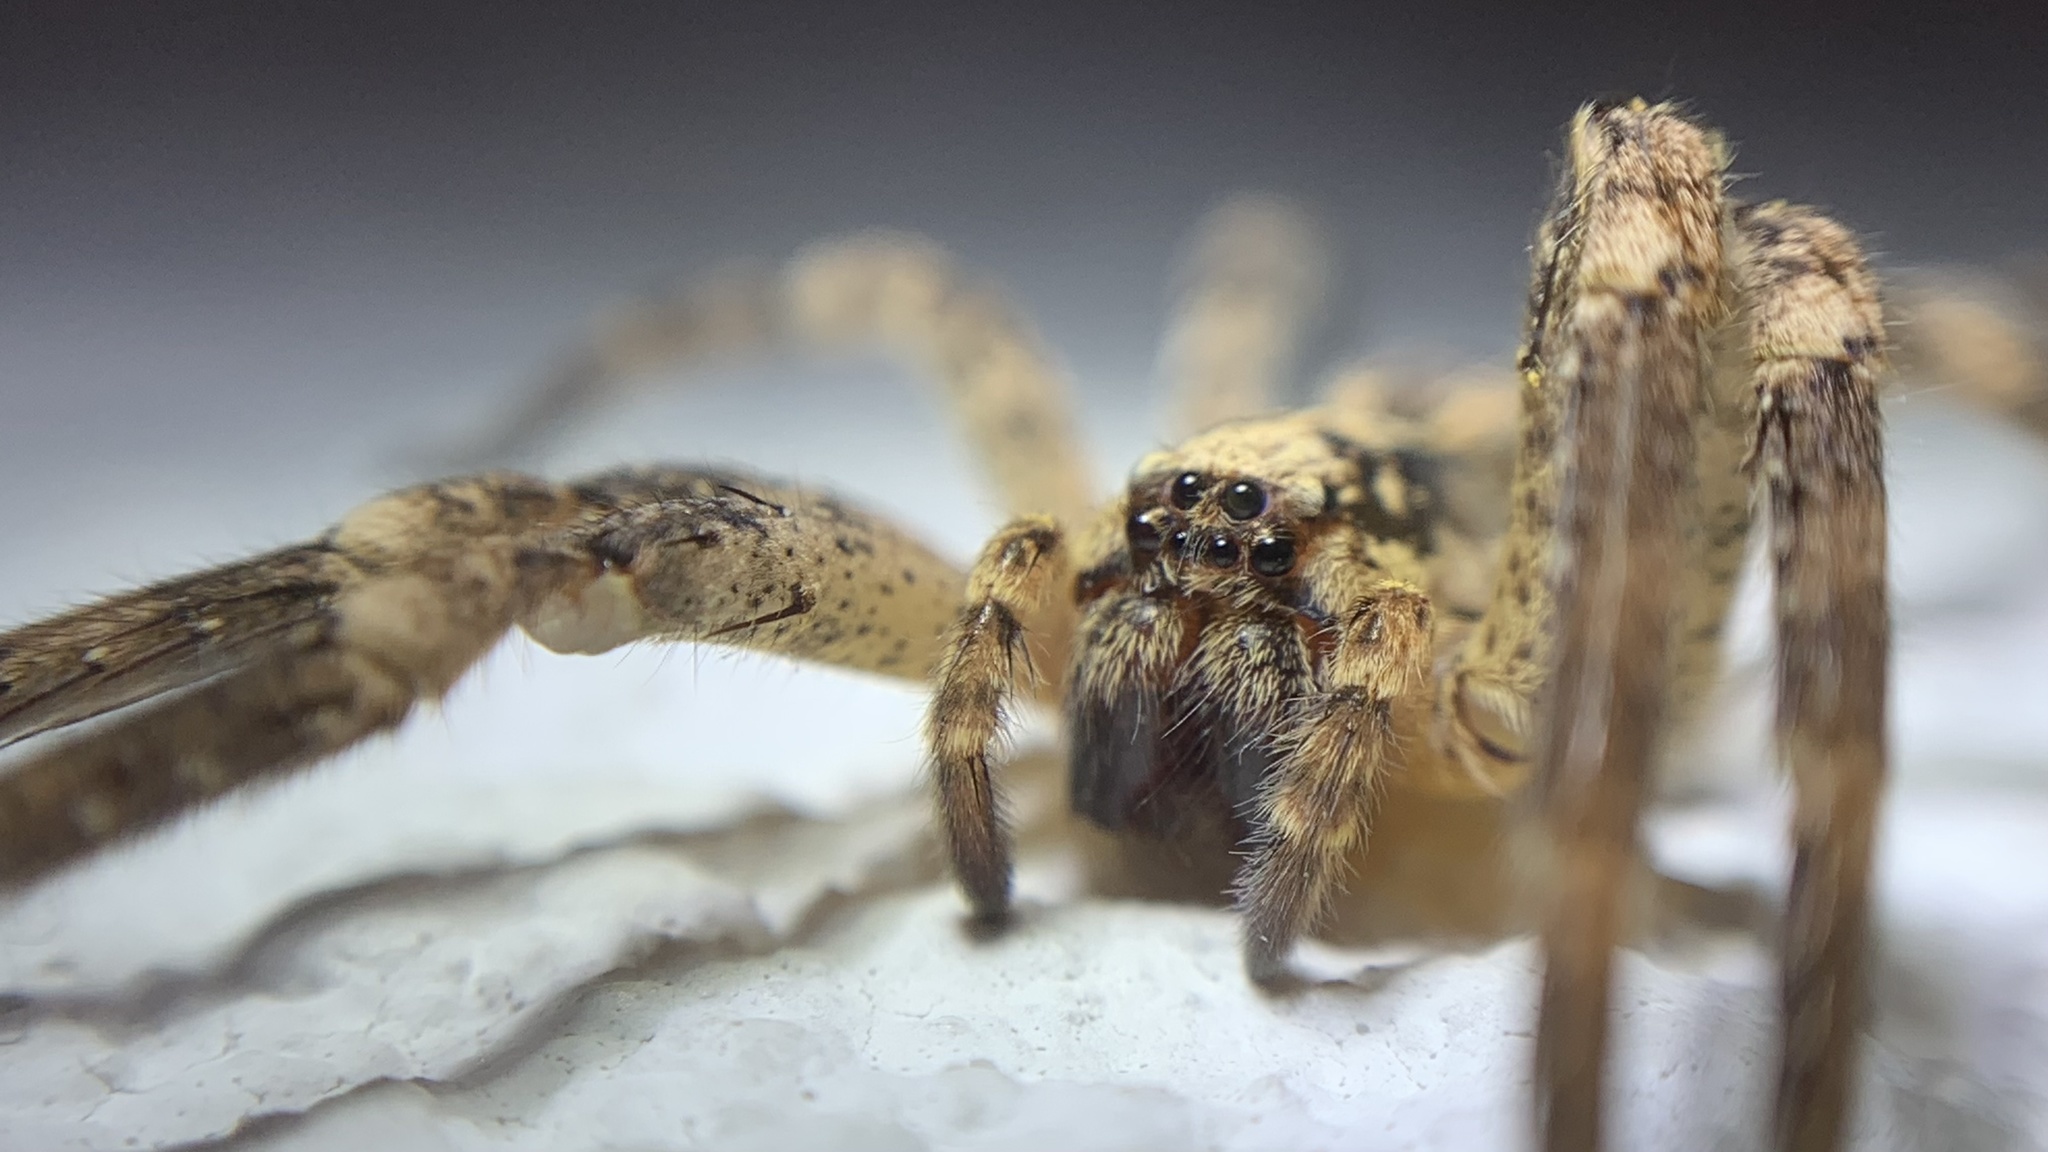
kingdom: Animalia
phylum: Arthropoda
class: Arachnida
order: Araneae
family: Zoropsidae
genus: Zoropsis
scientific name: Zoropsis spinimana
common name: Zoropsid spider
